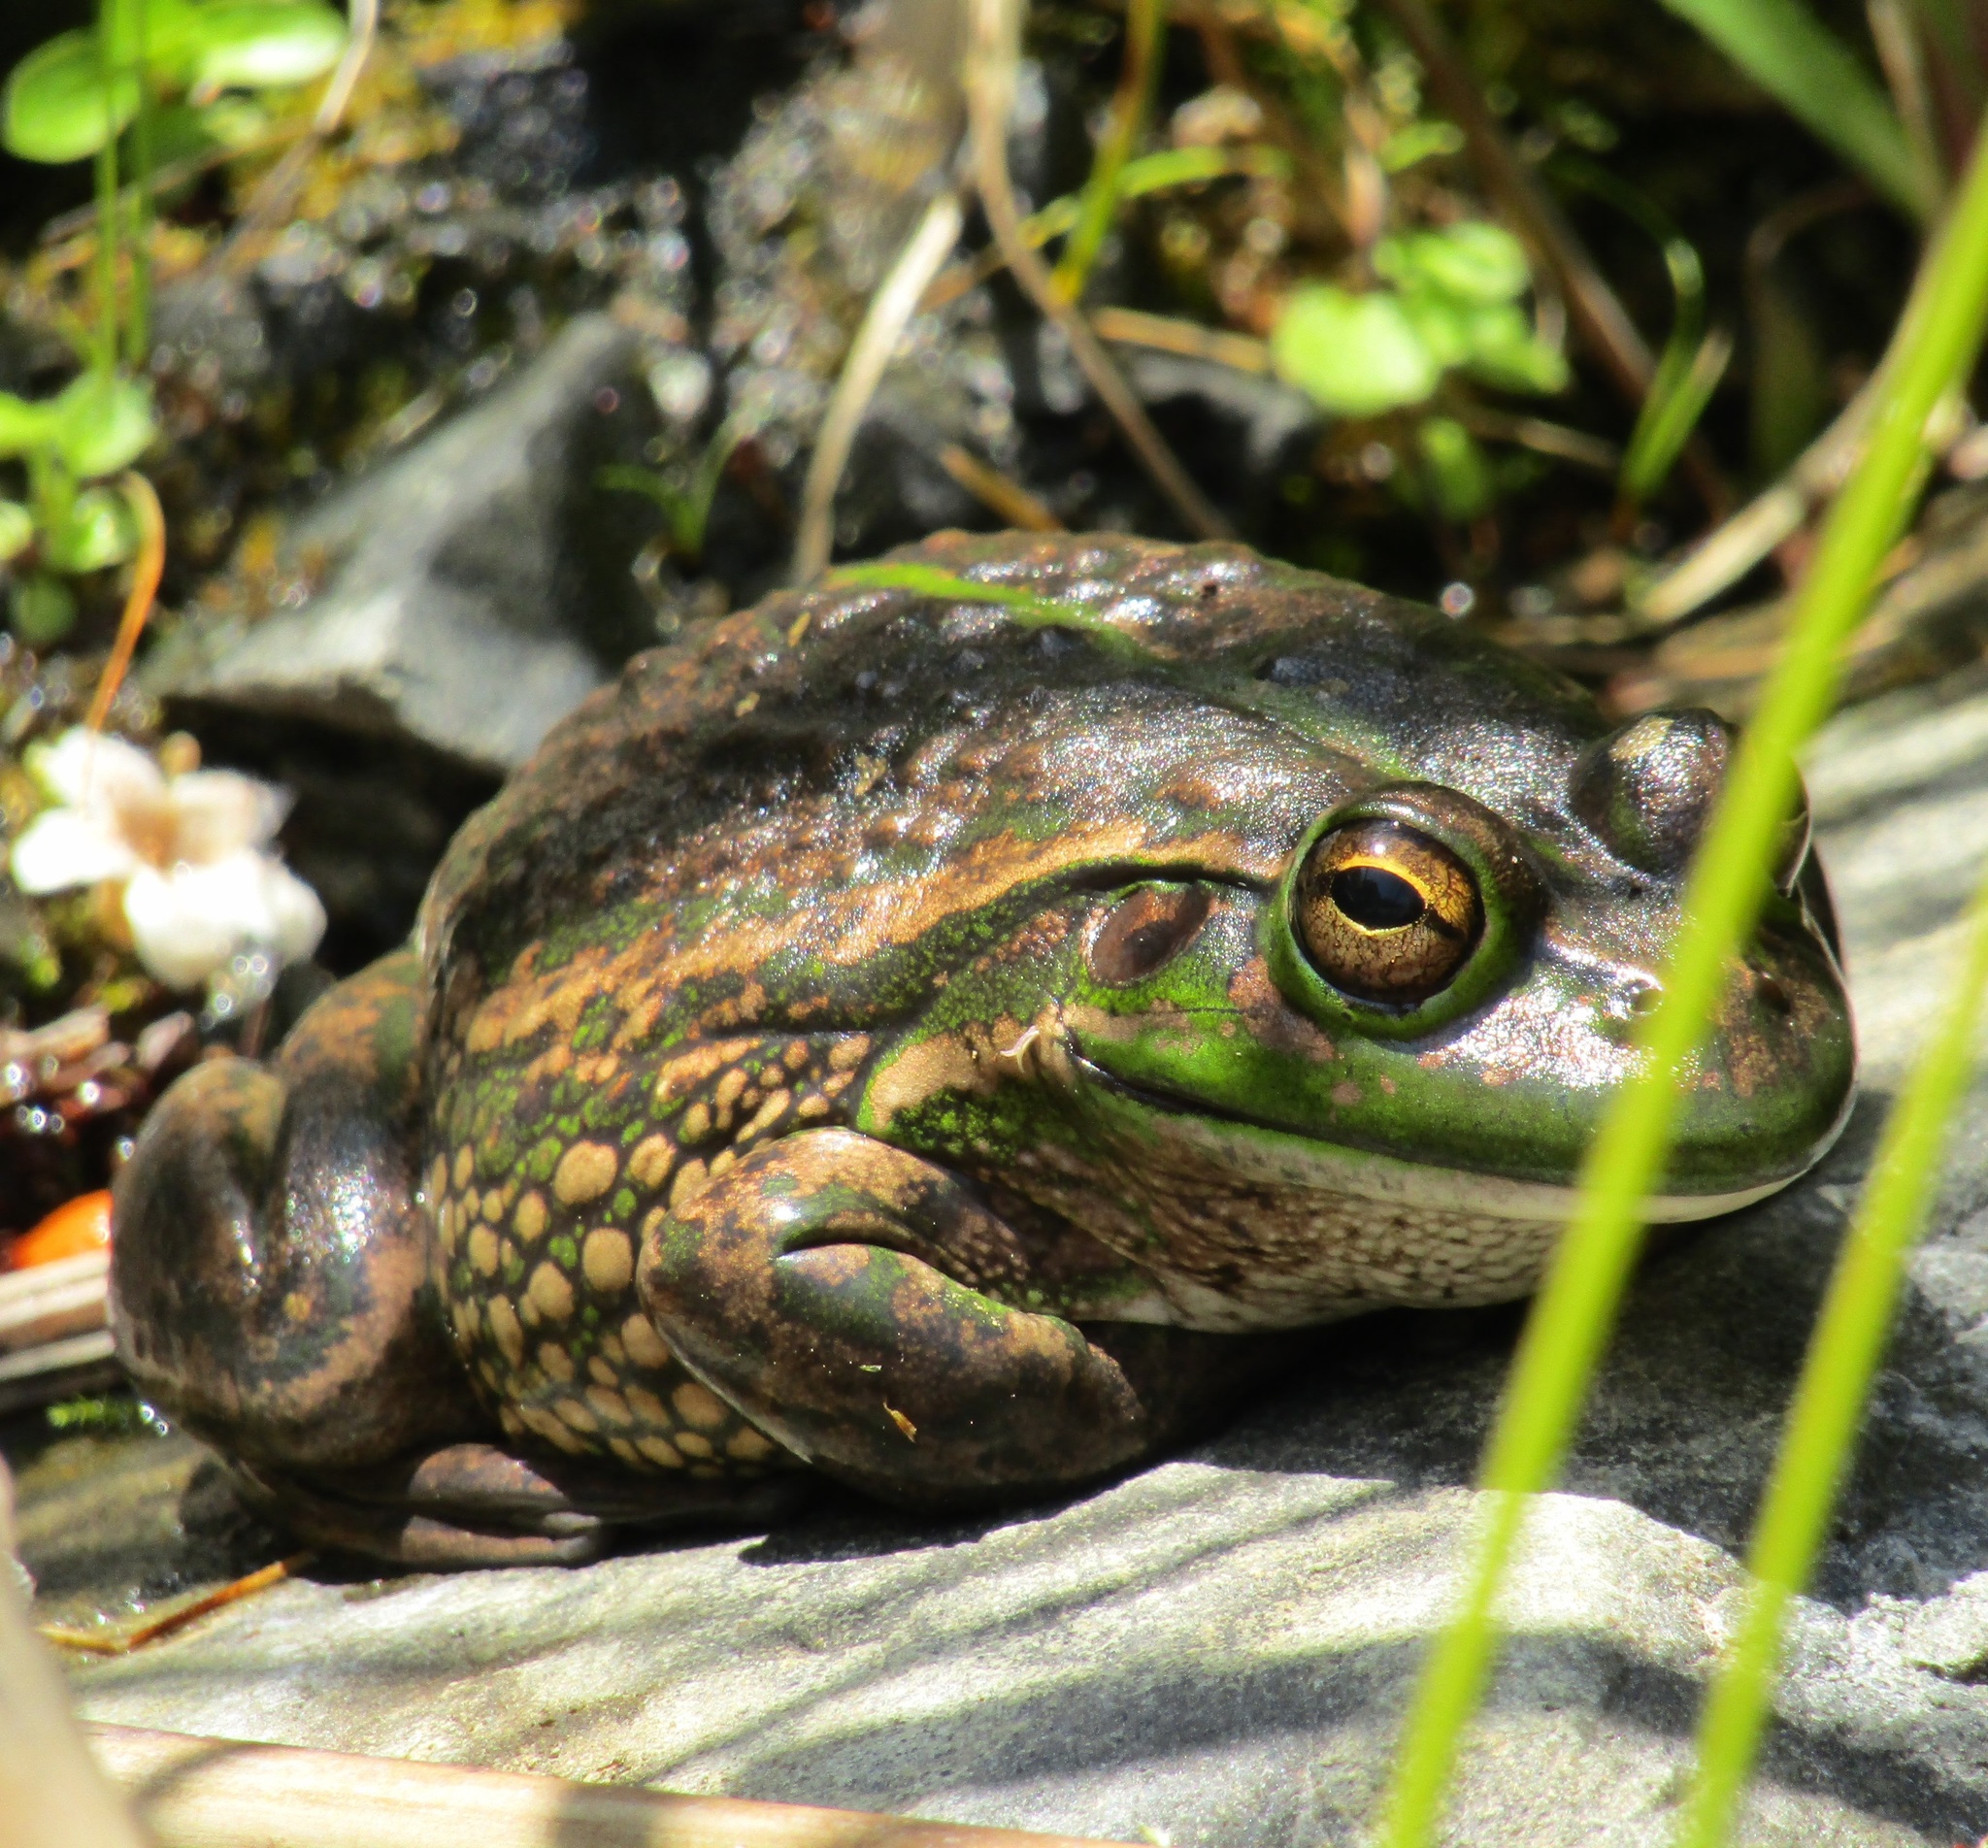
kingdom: Animalia
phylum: Chordata
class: Amphibia
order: Anura
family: Pelodryadidae
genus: Ranoidea
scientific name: Ranoidea raniformis
